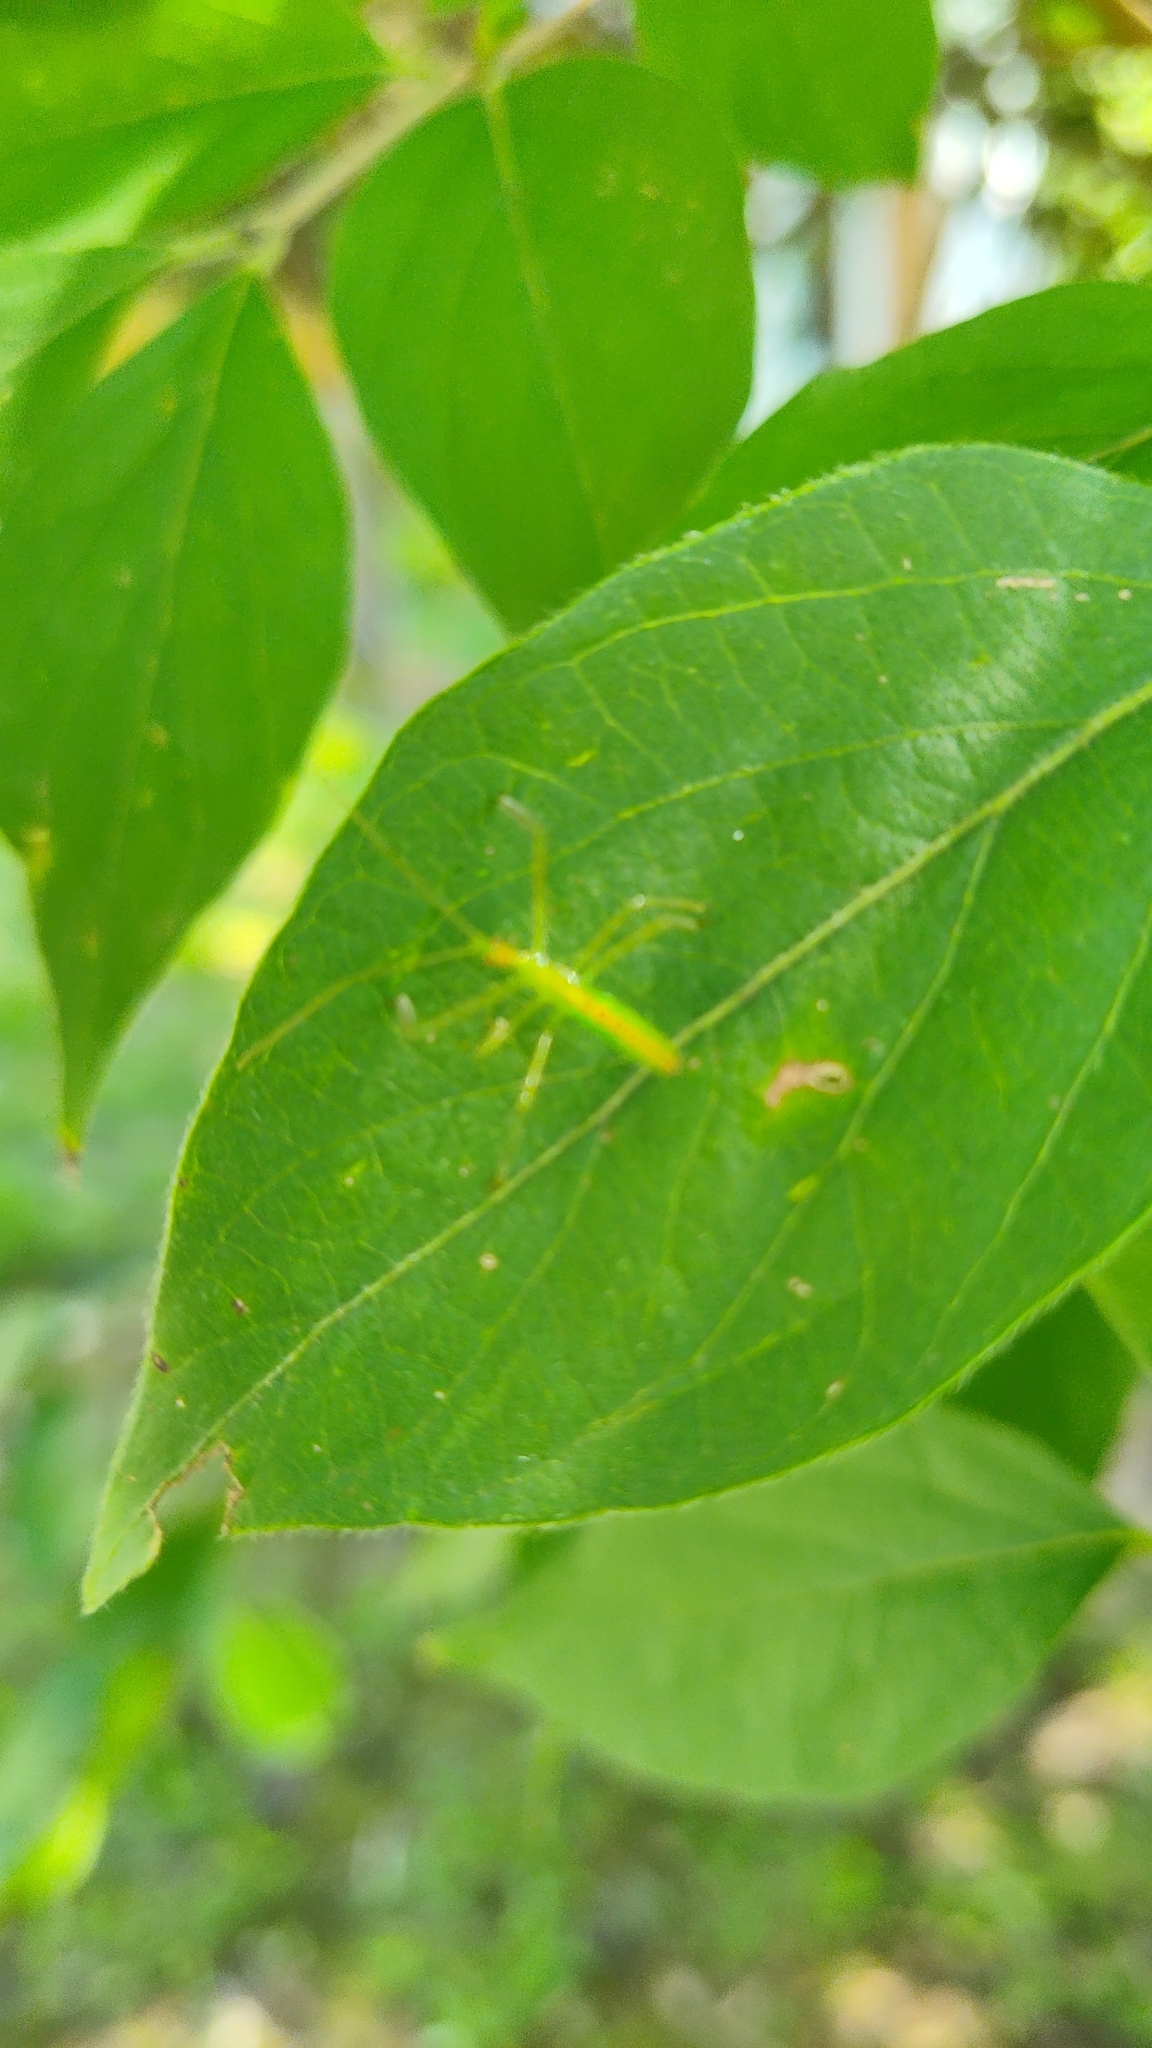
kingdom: Animalia
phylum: Arthropoda
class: Insecta
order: Hemiptera
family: Reduviidae
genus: Zelus
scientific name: Zelus luridus
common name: Pale green assassin bug
